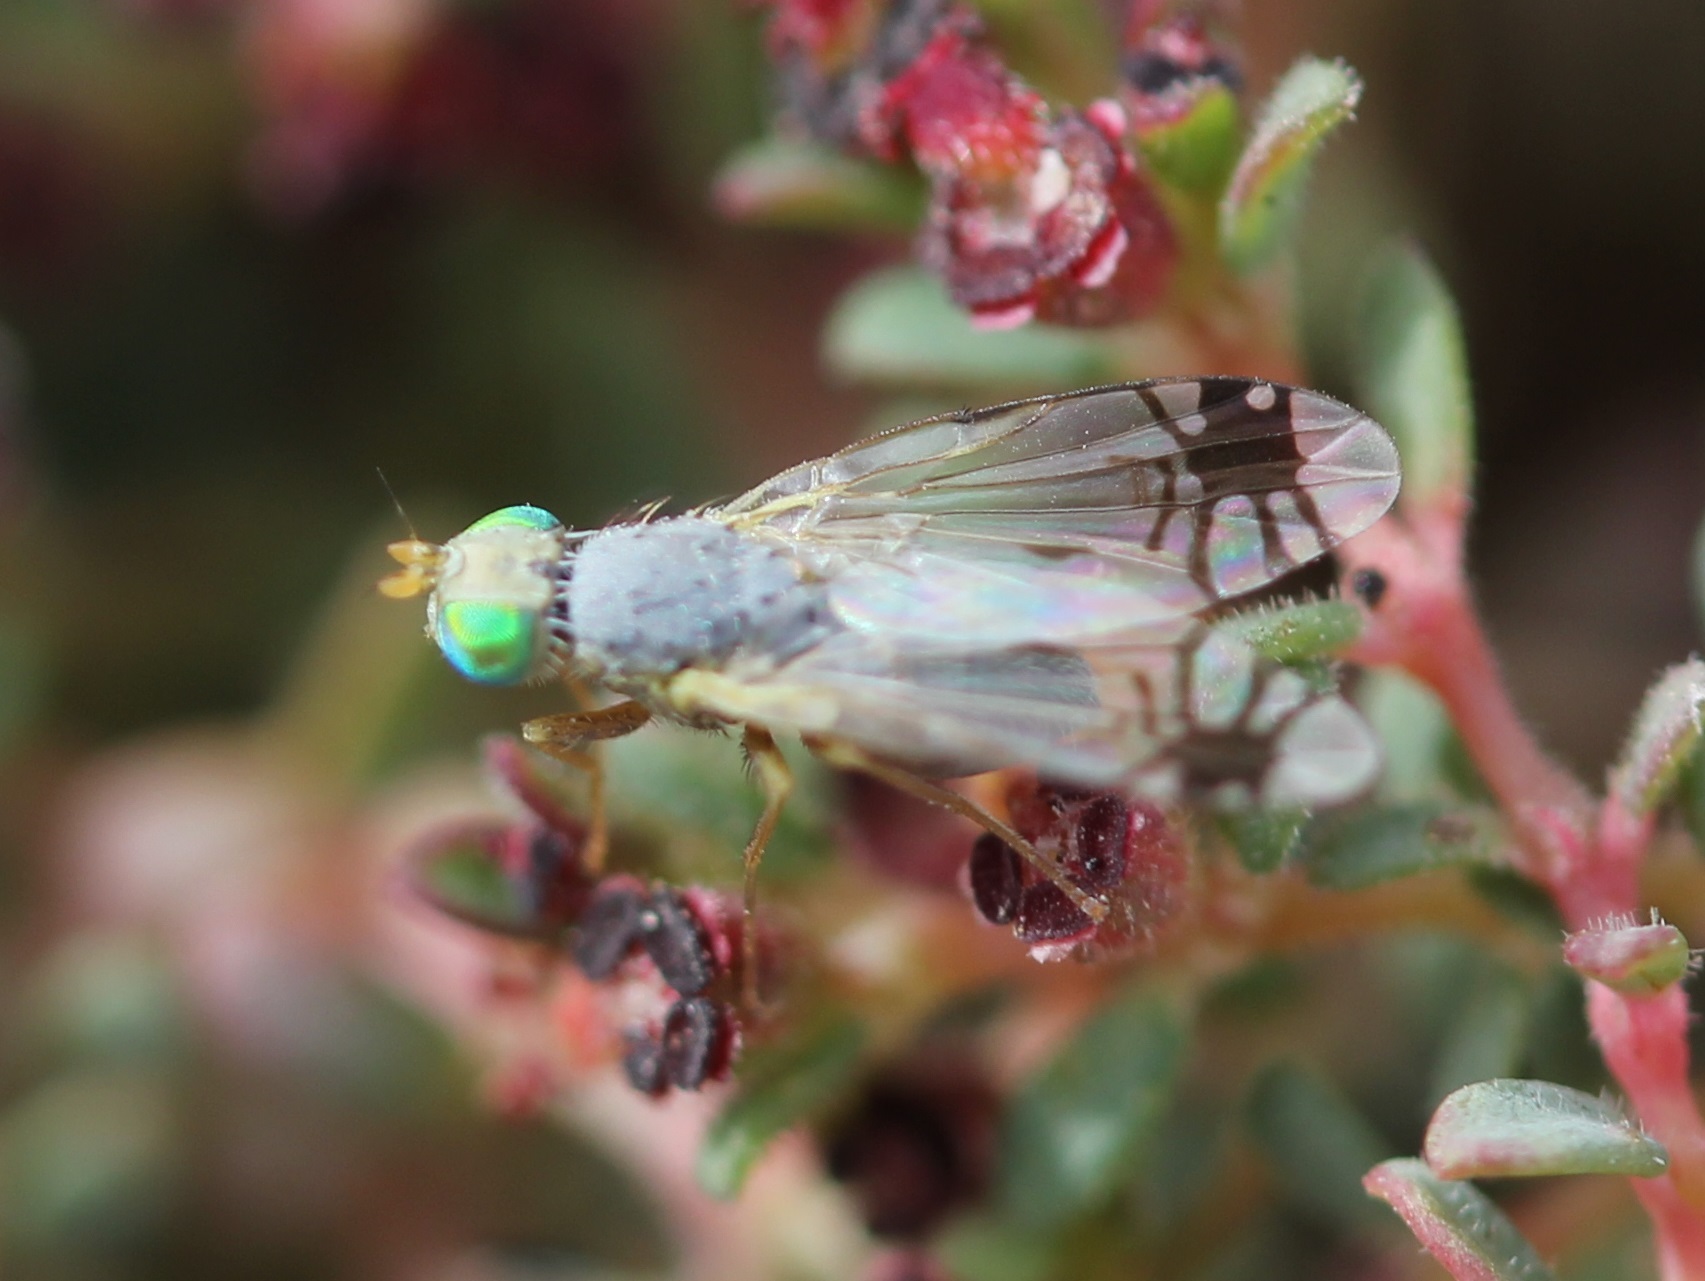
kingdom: Animalia
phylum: Arthropoda
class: Insecta
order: Diptera
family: Tephritidae
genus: Trupanea
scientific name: Trupanea radifera
